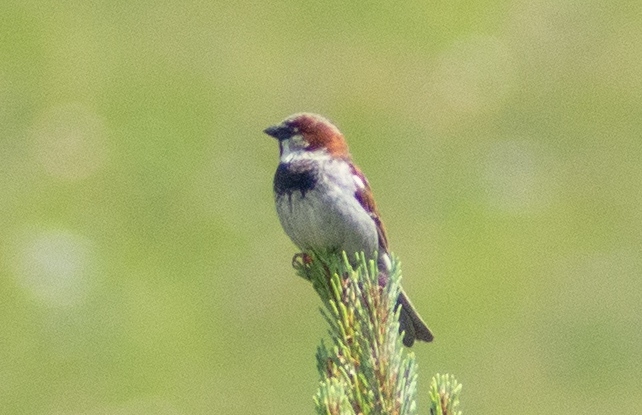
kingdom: Animalia
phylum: Chordata
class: Aves
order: Passeriformes
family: Passeridae
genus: Passer
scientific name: Passer domesticus
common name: House sparrow
